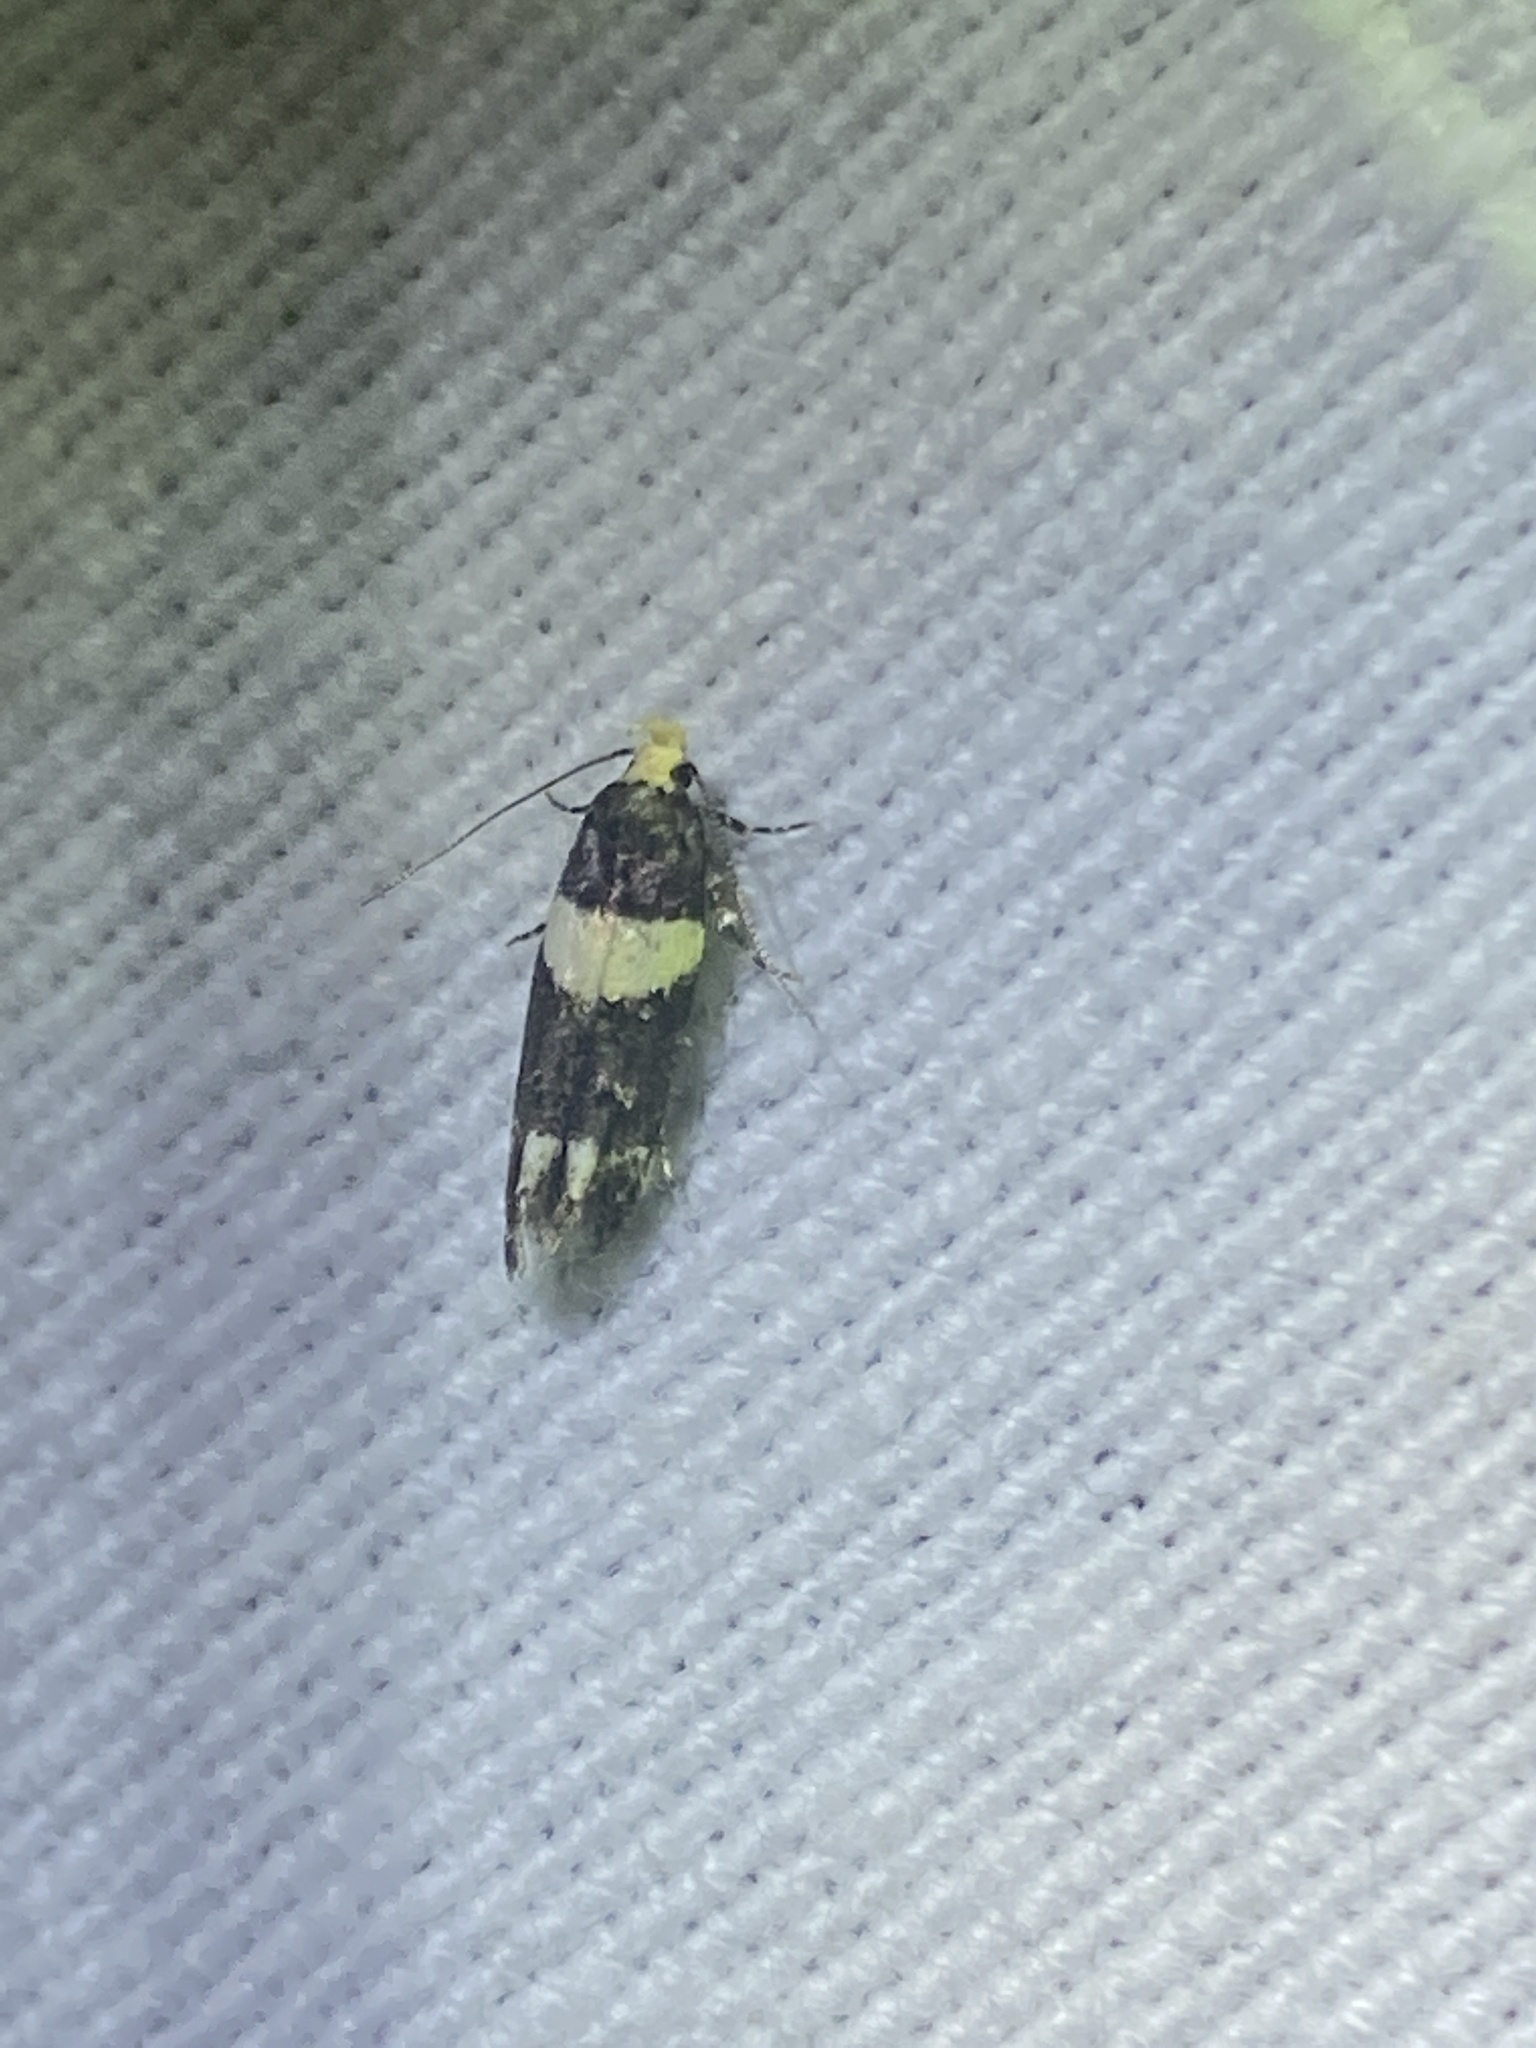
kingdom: Animalia
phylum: Arthropoda
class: Insecta
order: Lepidoptera
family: Gelechiidae
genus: Recurvaria
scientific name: Recurvaria leucatella
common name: White-barred groundling
